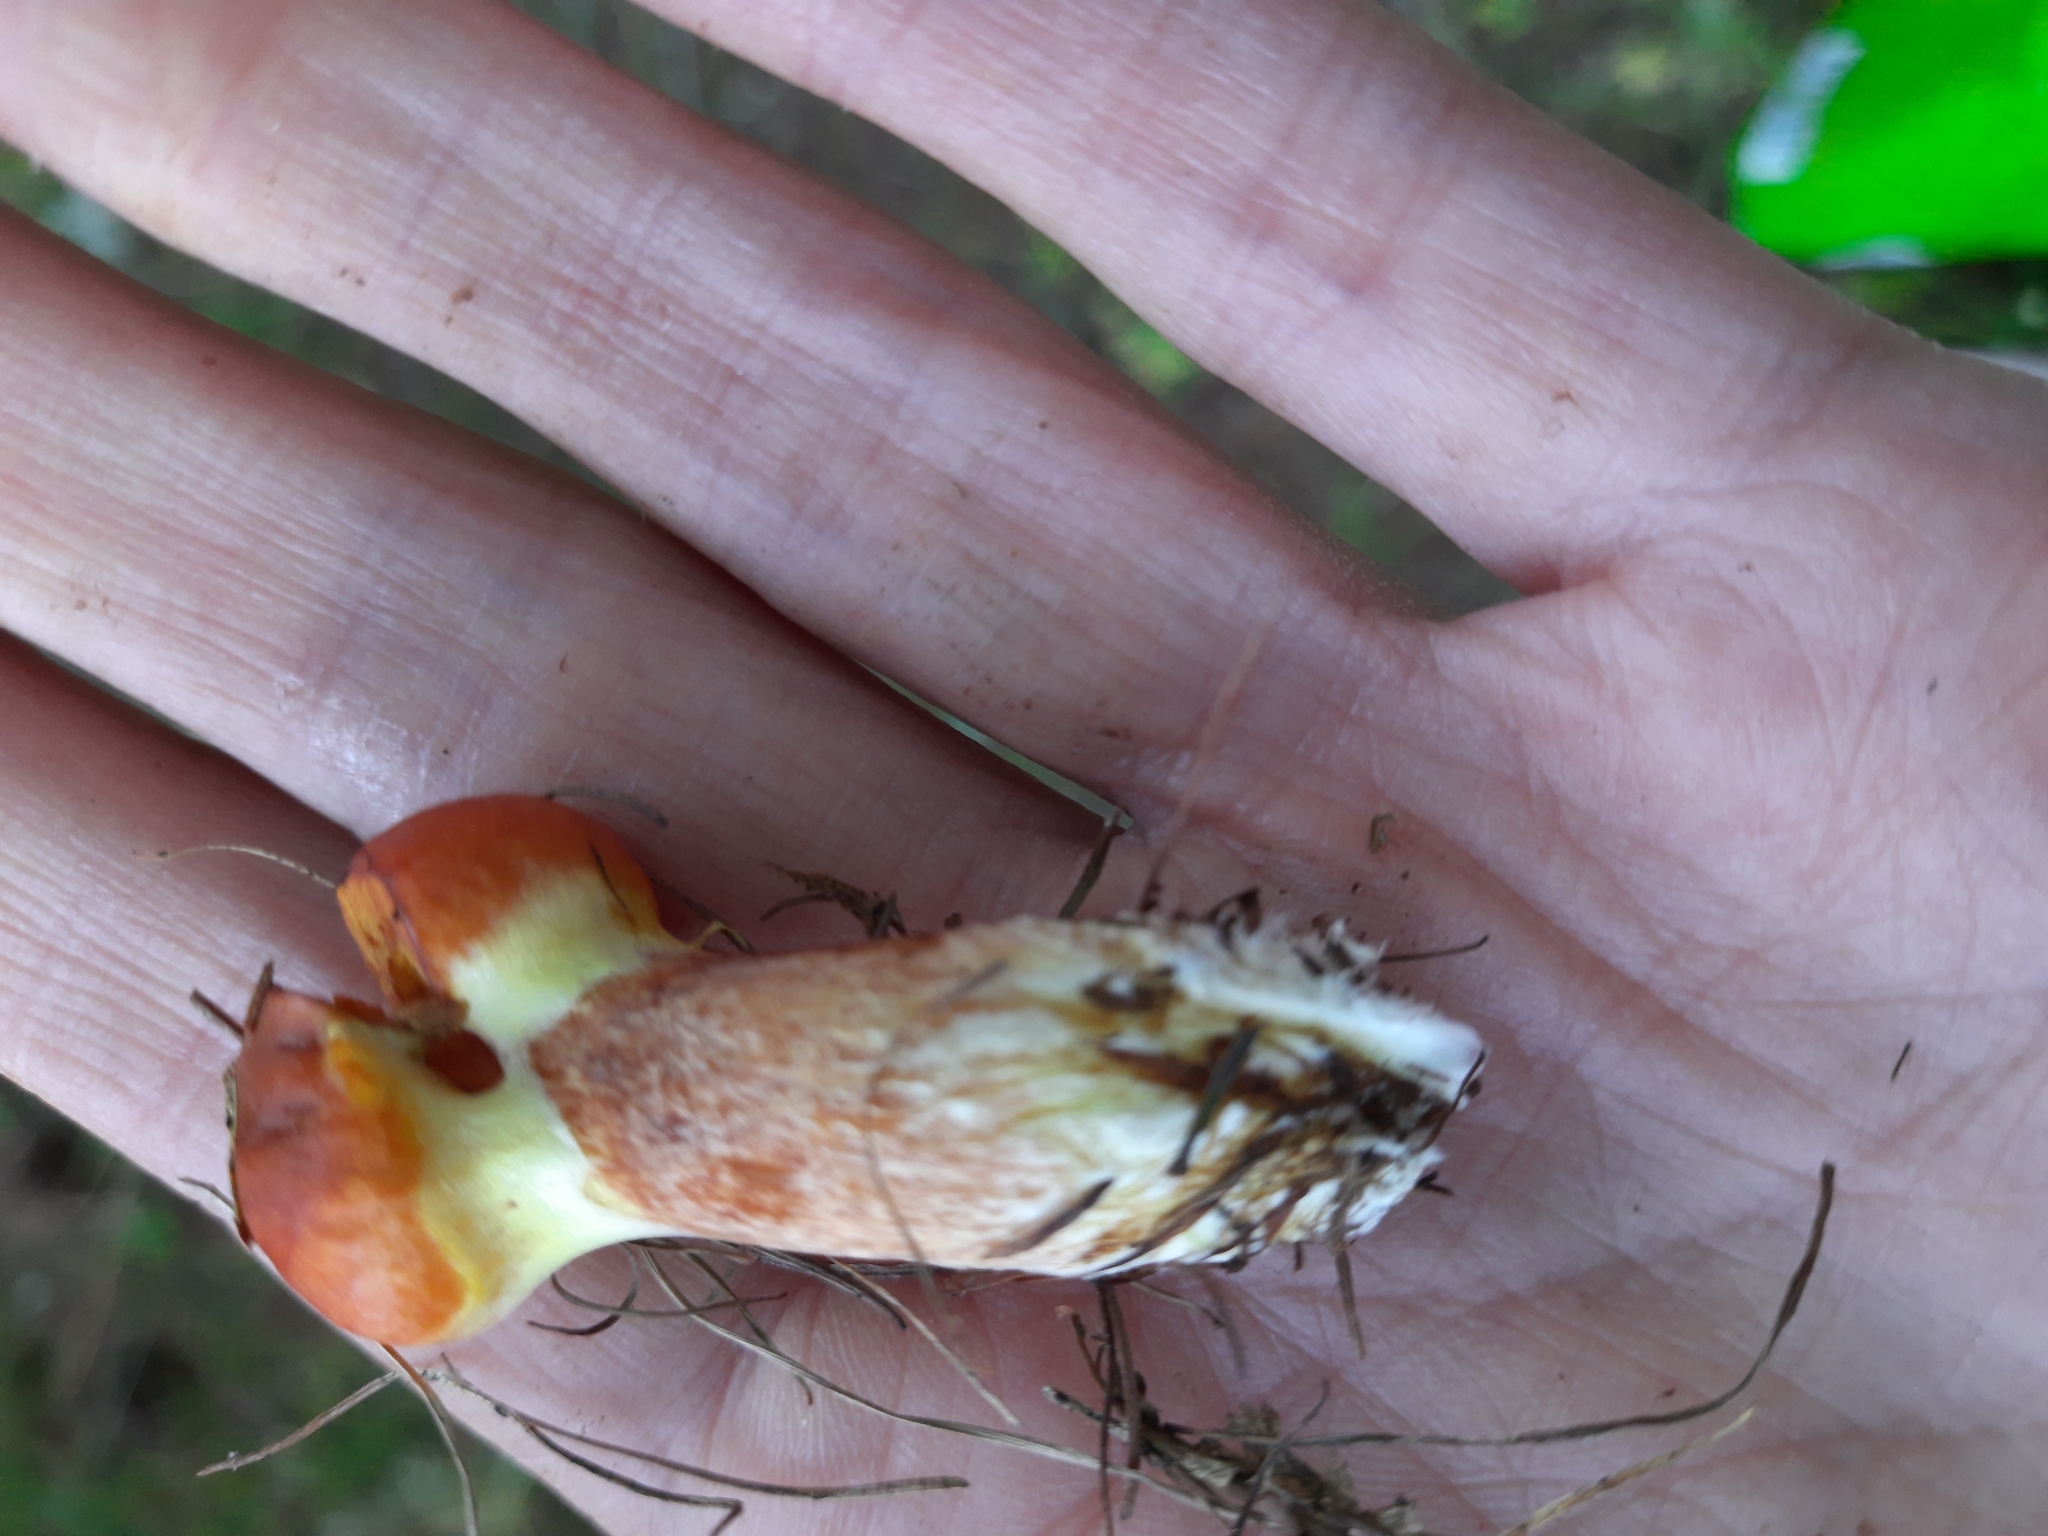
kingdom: Fungi
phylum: Basidiomycota
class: Agaricomycetes
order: Boletales
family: Suillaceae
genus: Suillus
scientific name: Suillus grevillei
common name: Larch bolete
